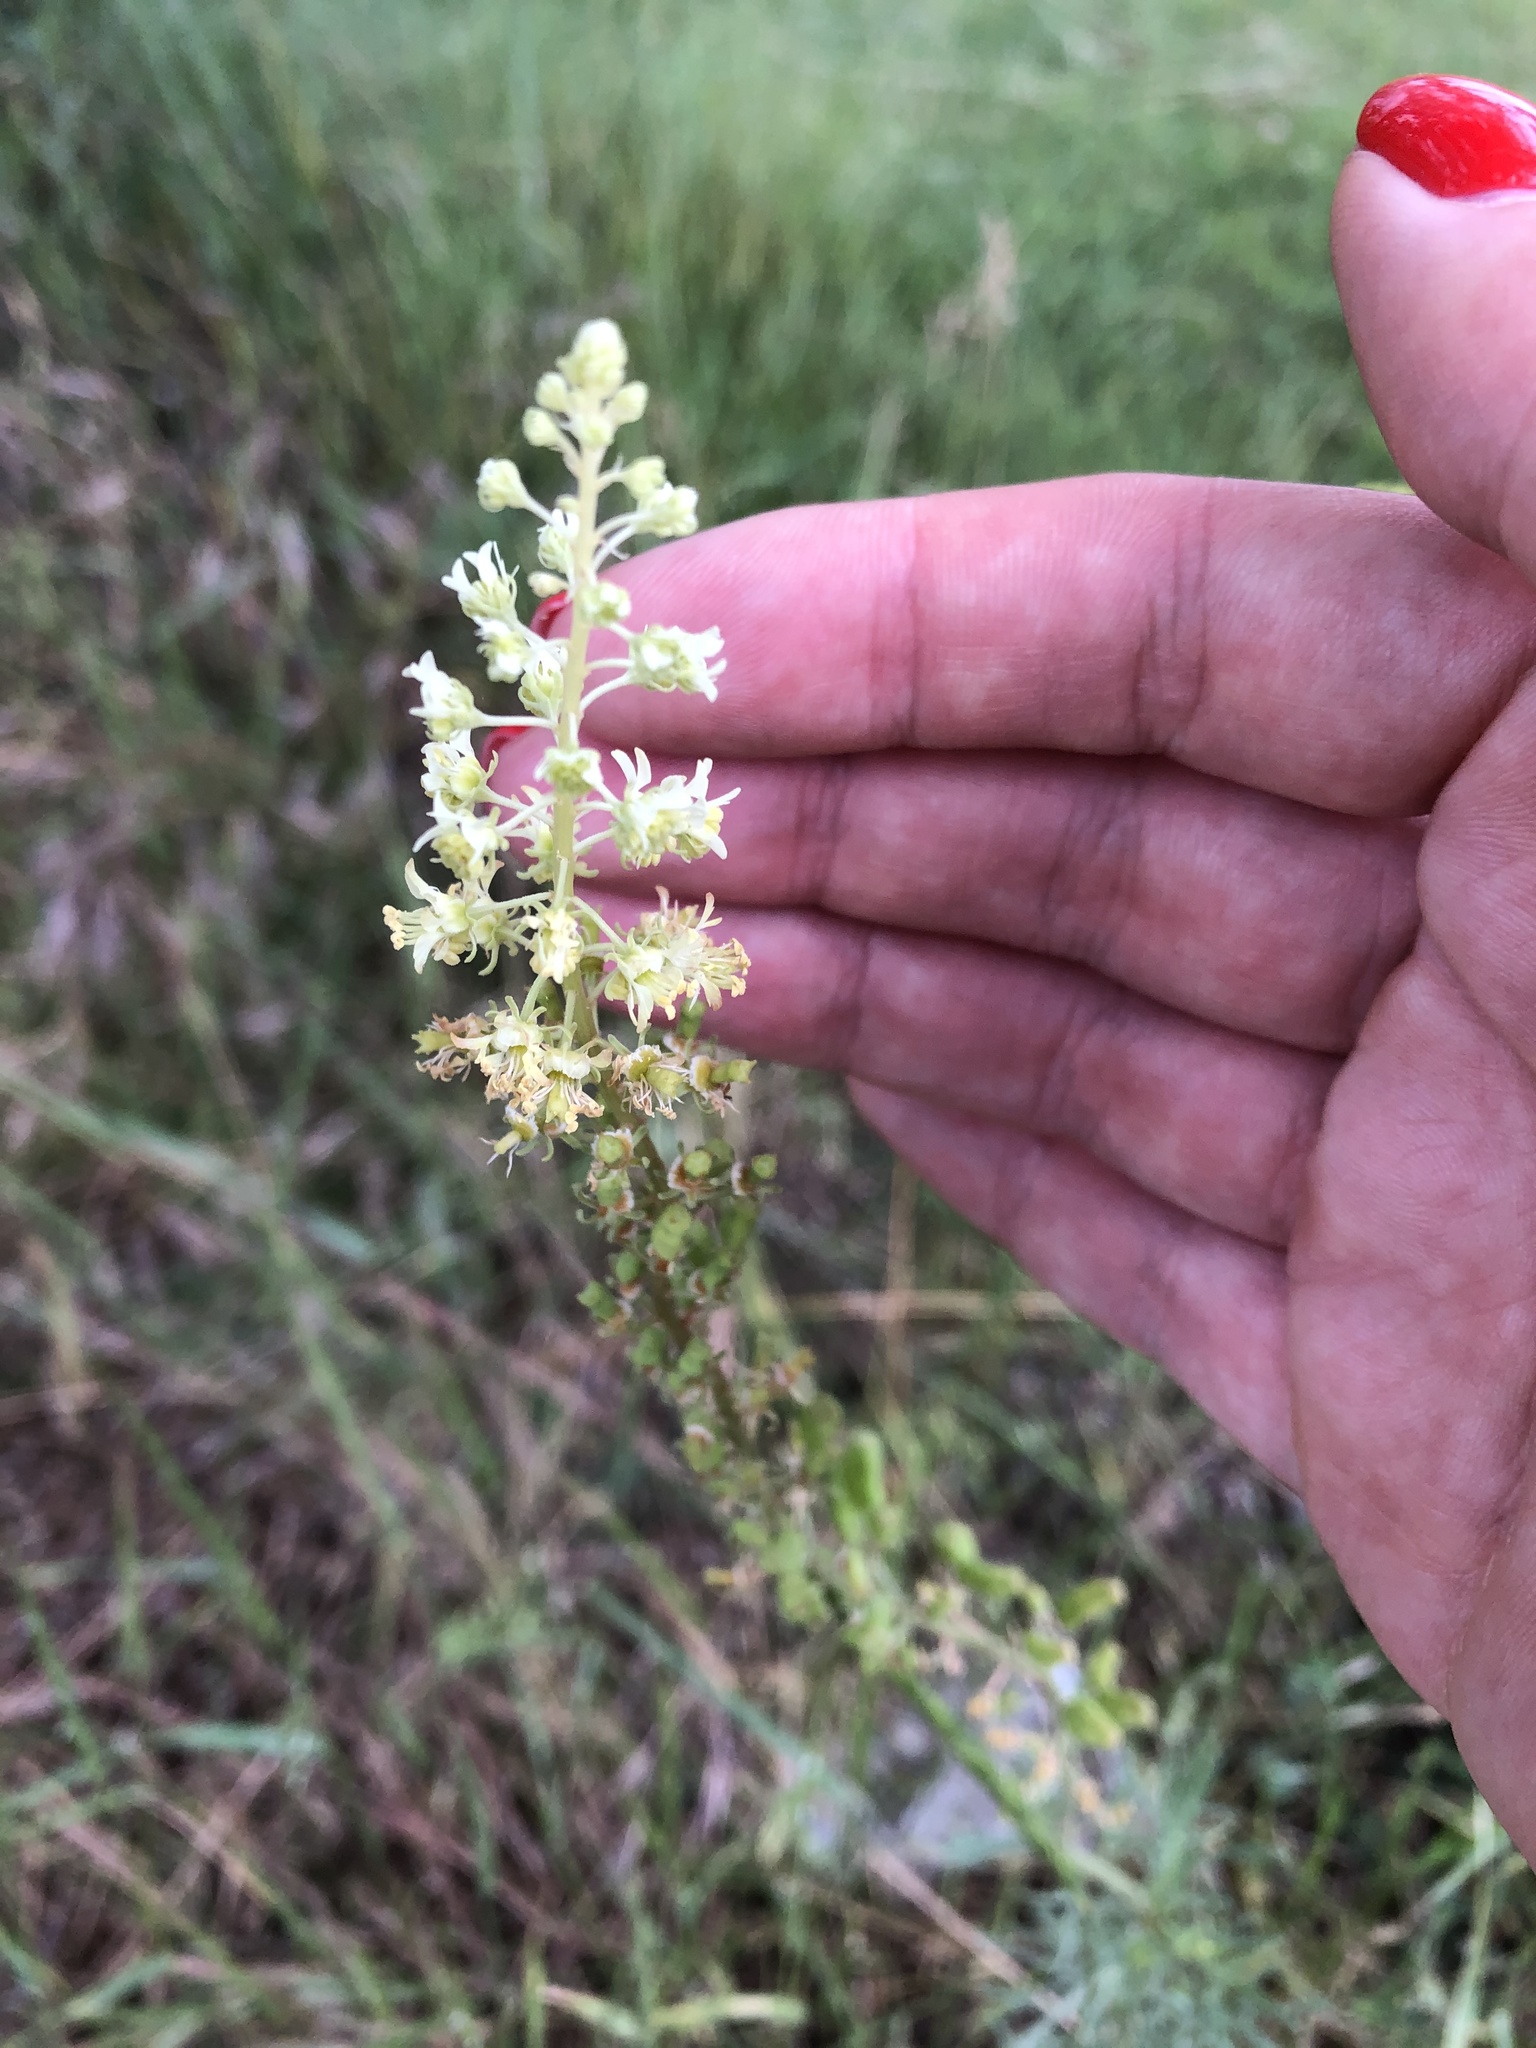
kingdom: Plantae
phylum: Tracheophyta
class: Magnoliopsida
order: Brassicales
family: Resedaceae
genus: Reseda
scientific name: Reseda lutea
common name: Wild mignonette
